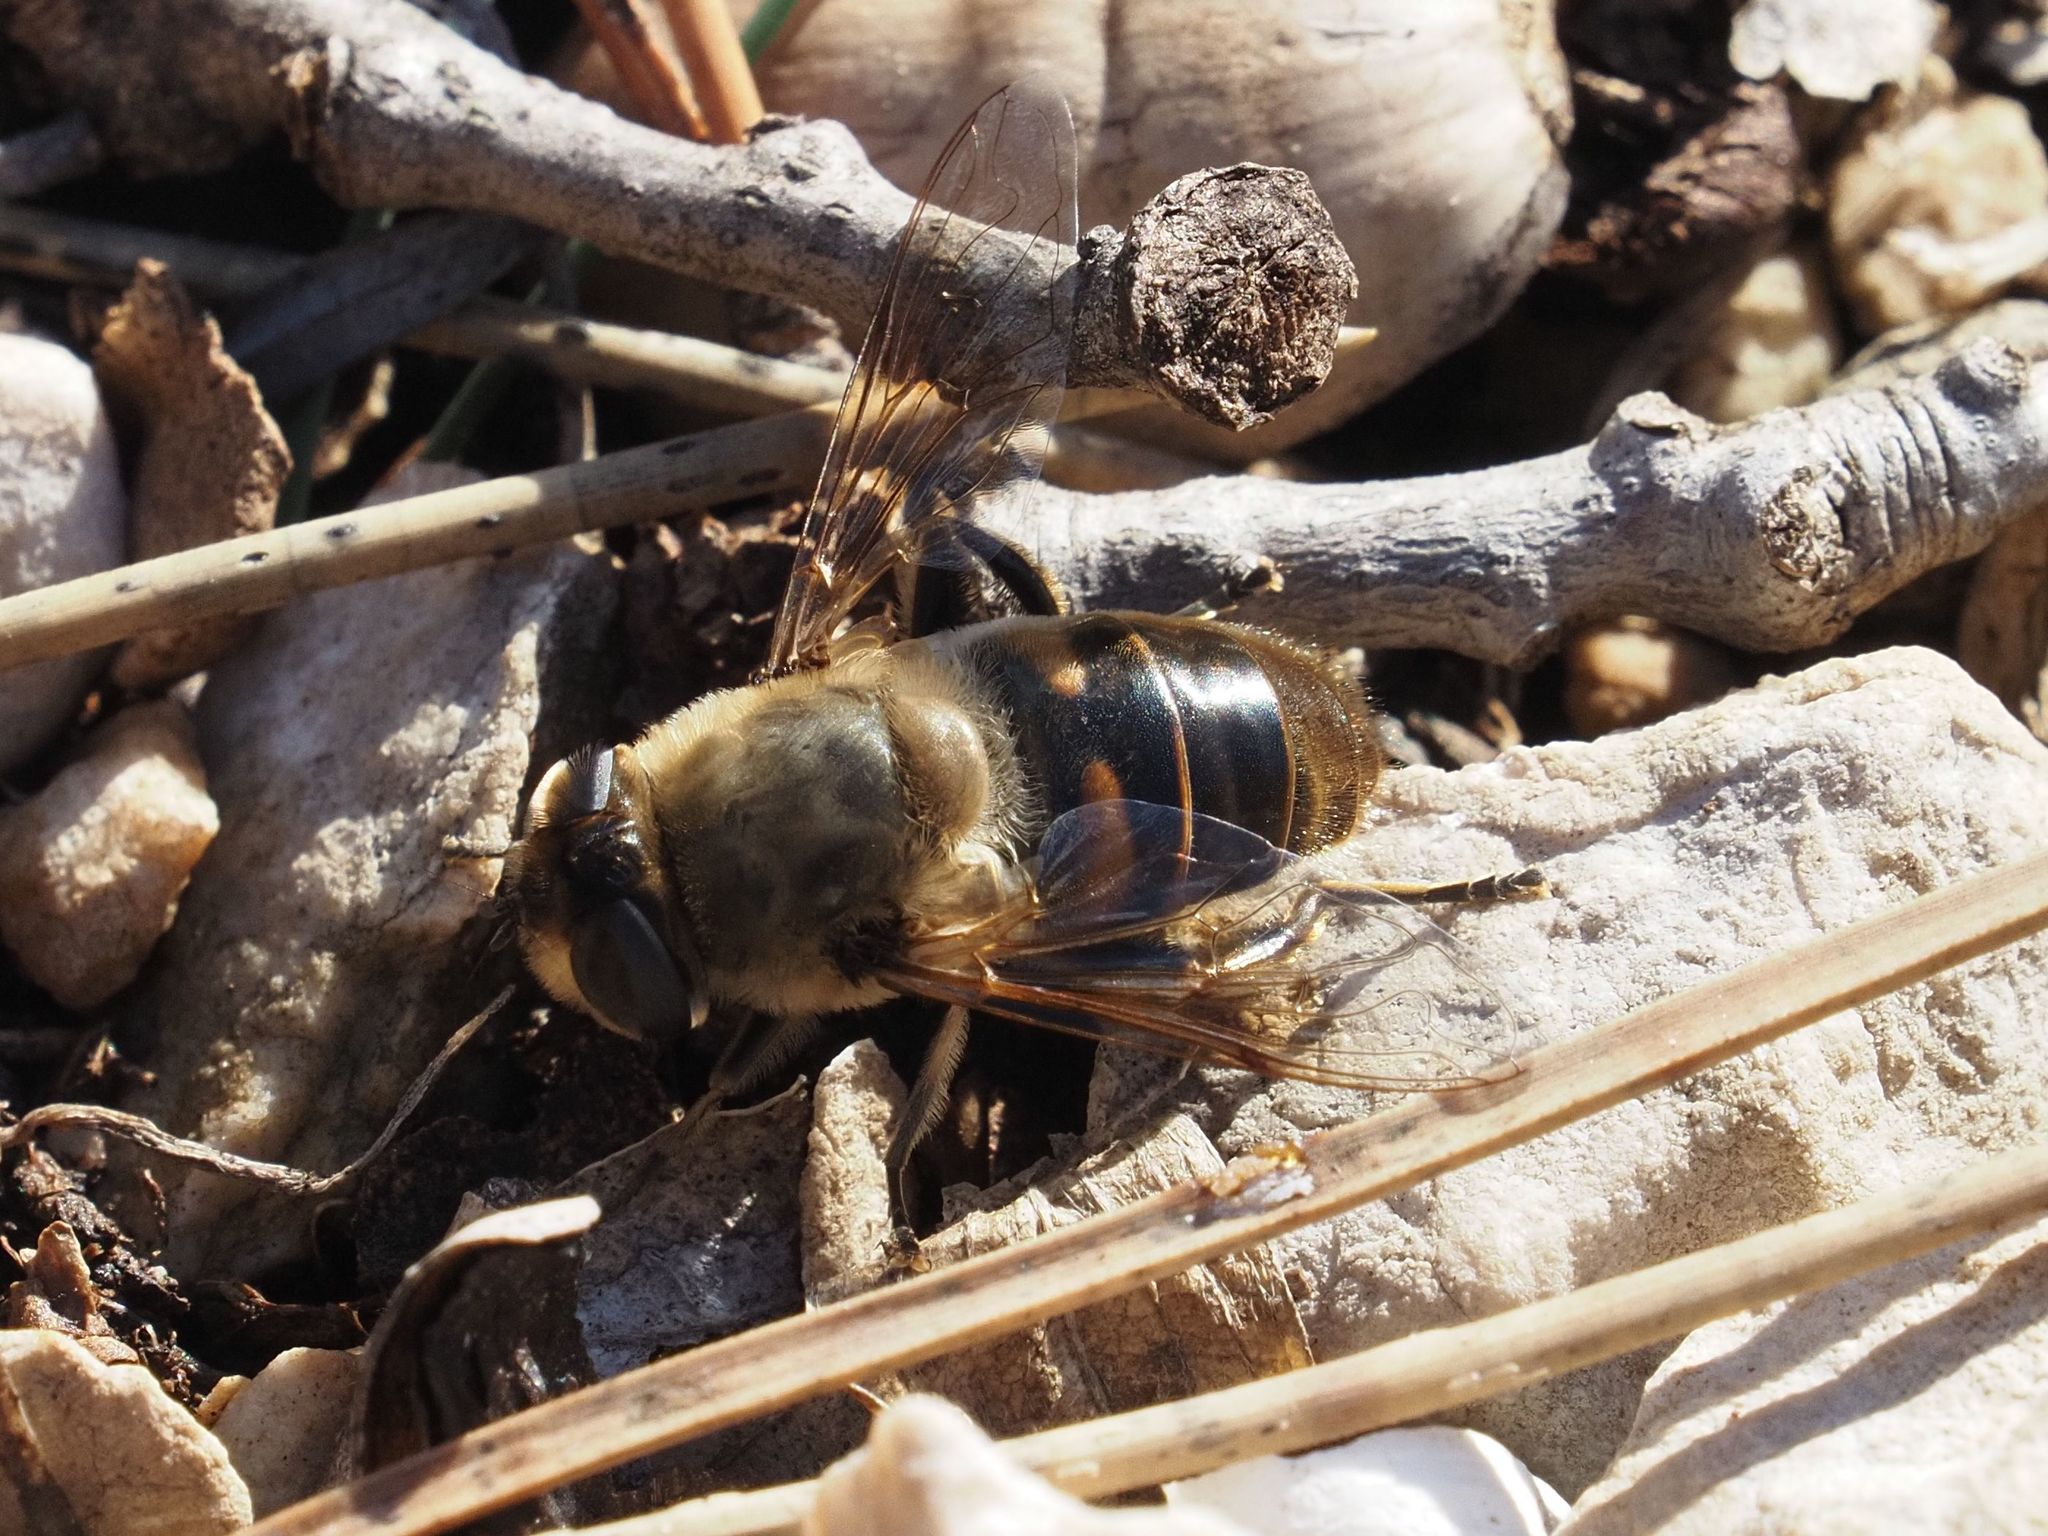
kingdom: Animalia
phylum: Arthropoda
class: Insecta
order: Diptera
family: Syrphidae
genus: Eristalis
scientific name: Eristalis tenax
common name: Drone fly
